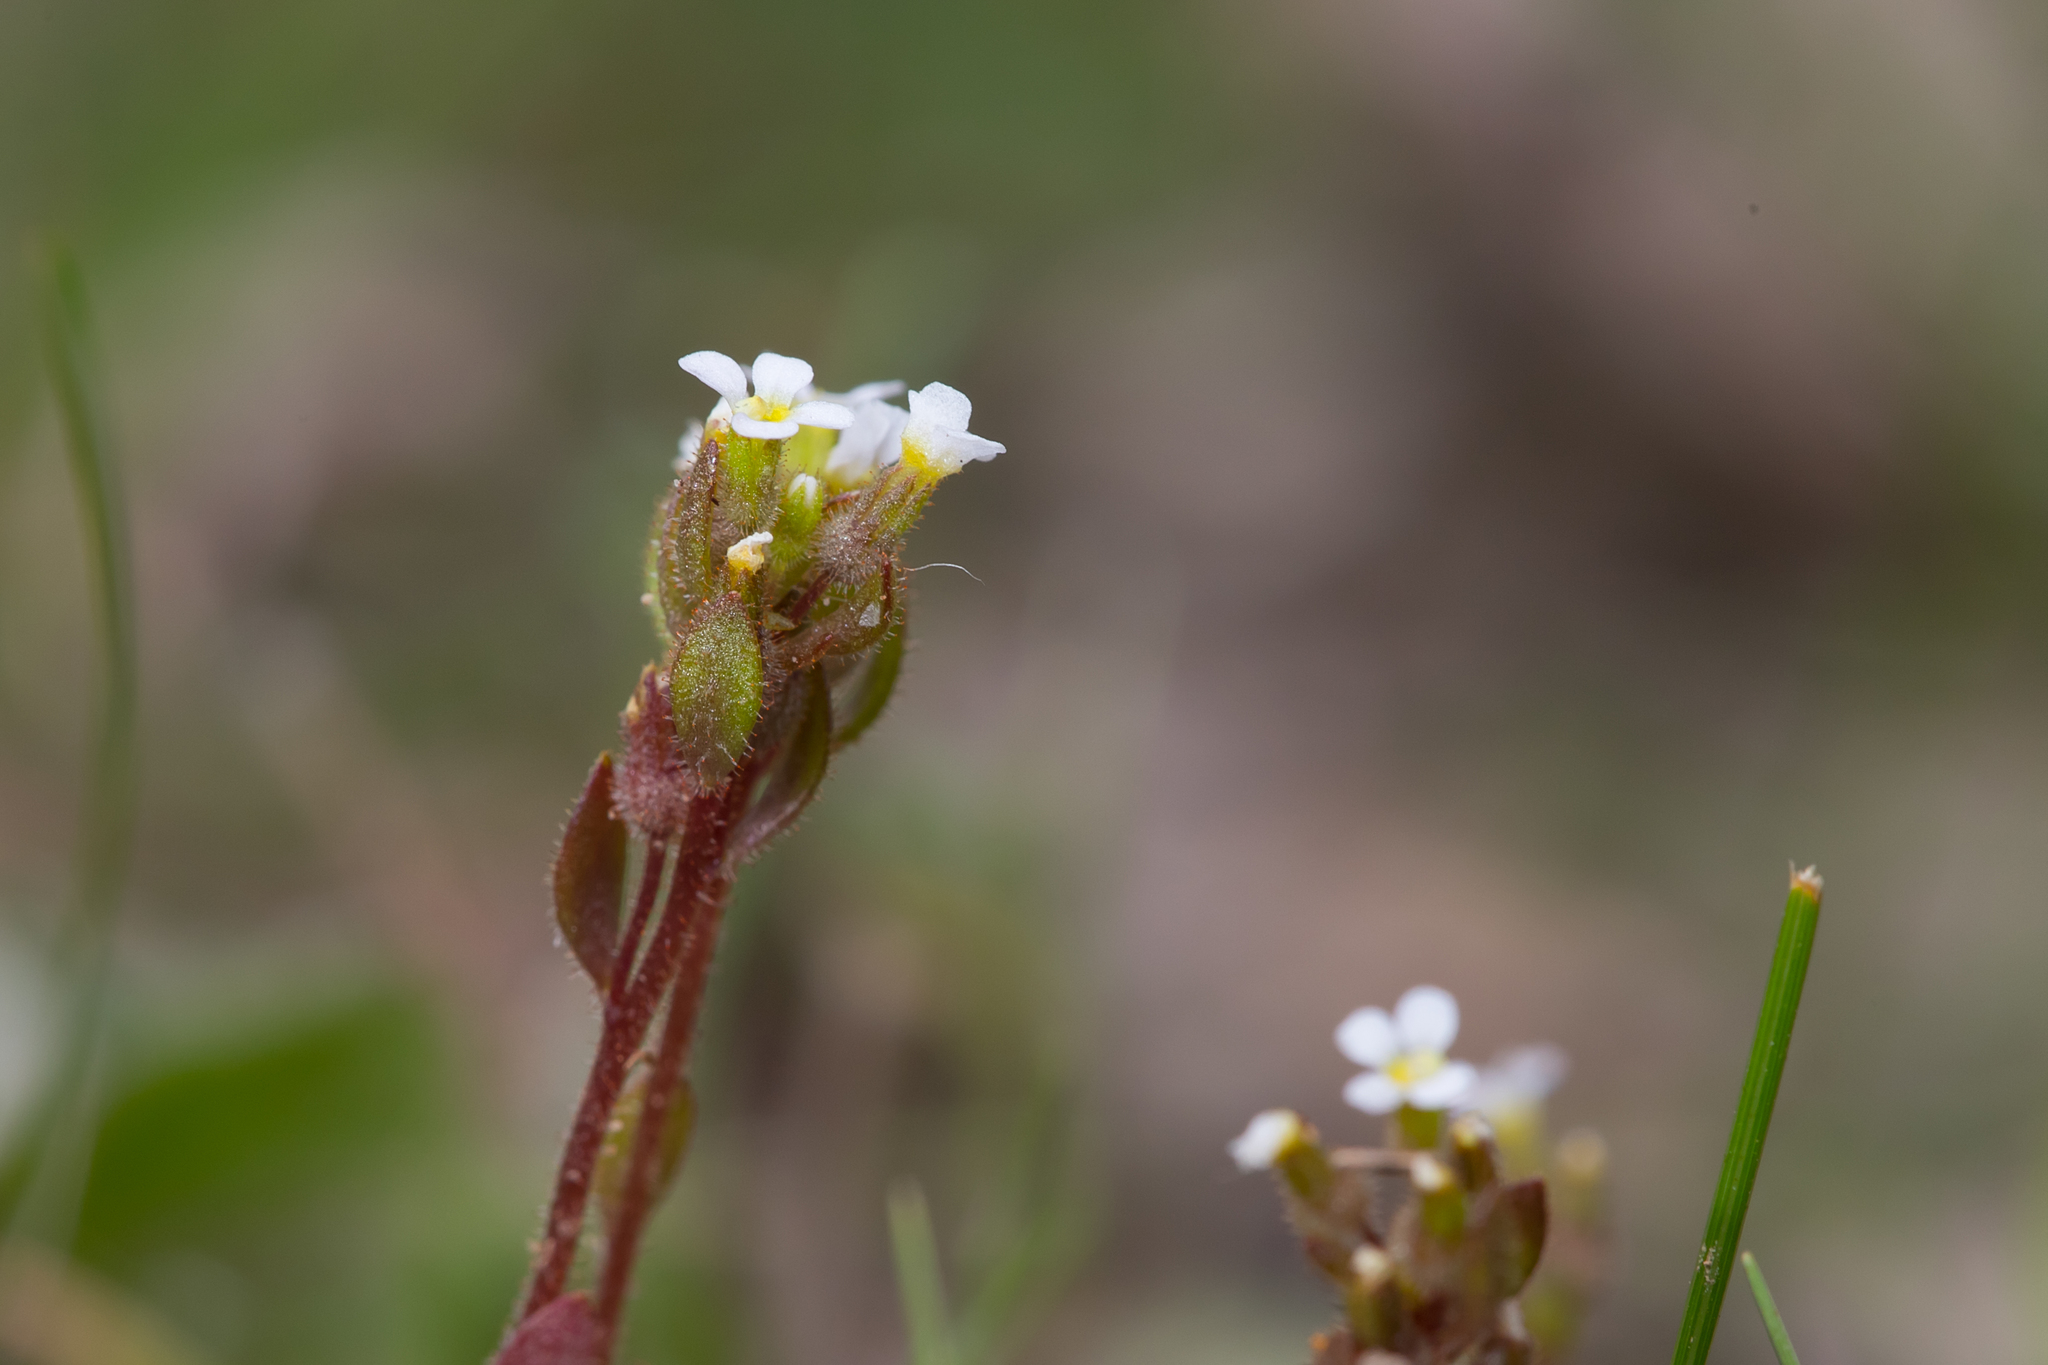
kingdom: Plantae
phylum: Tracheophyta
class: Magnoliopsida
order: Asterales
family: Stylidiaceae
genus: Levenhookia
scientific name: Levenhookia dubia
